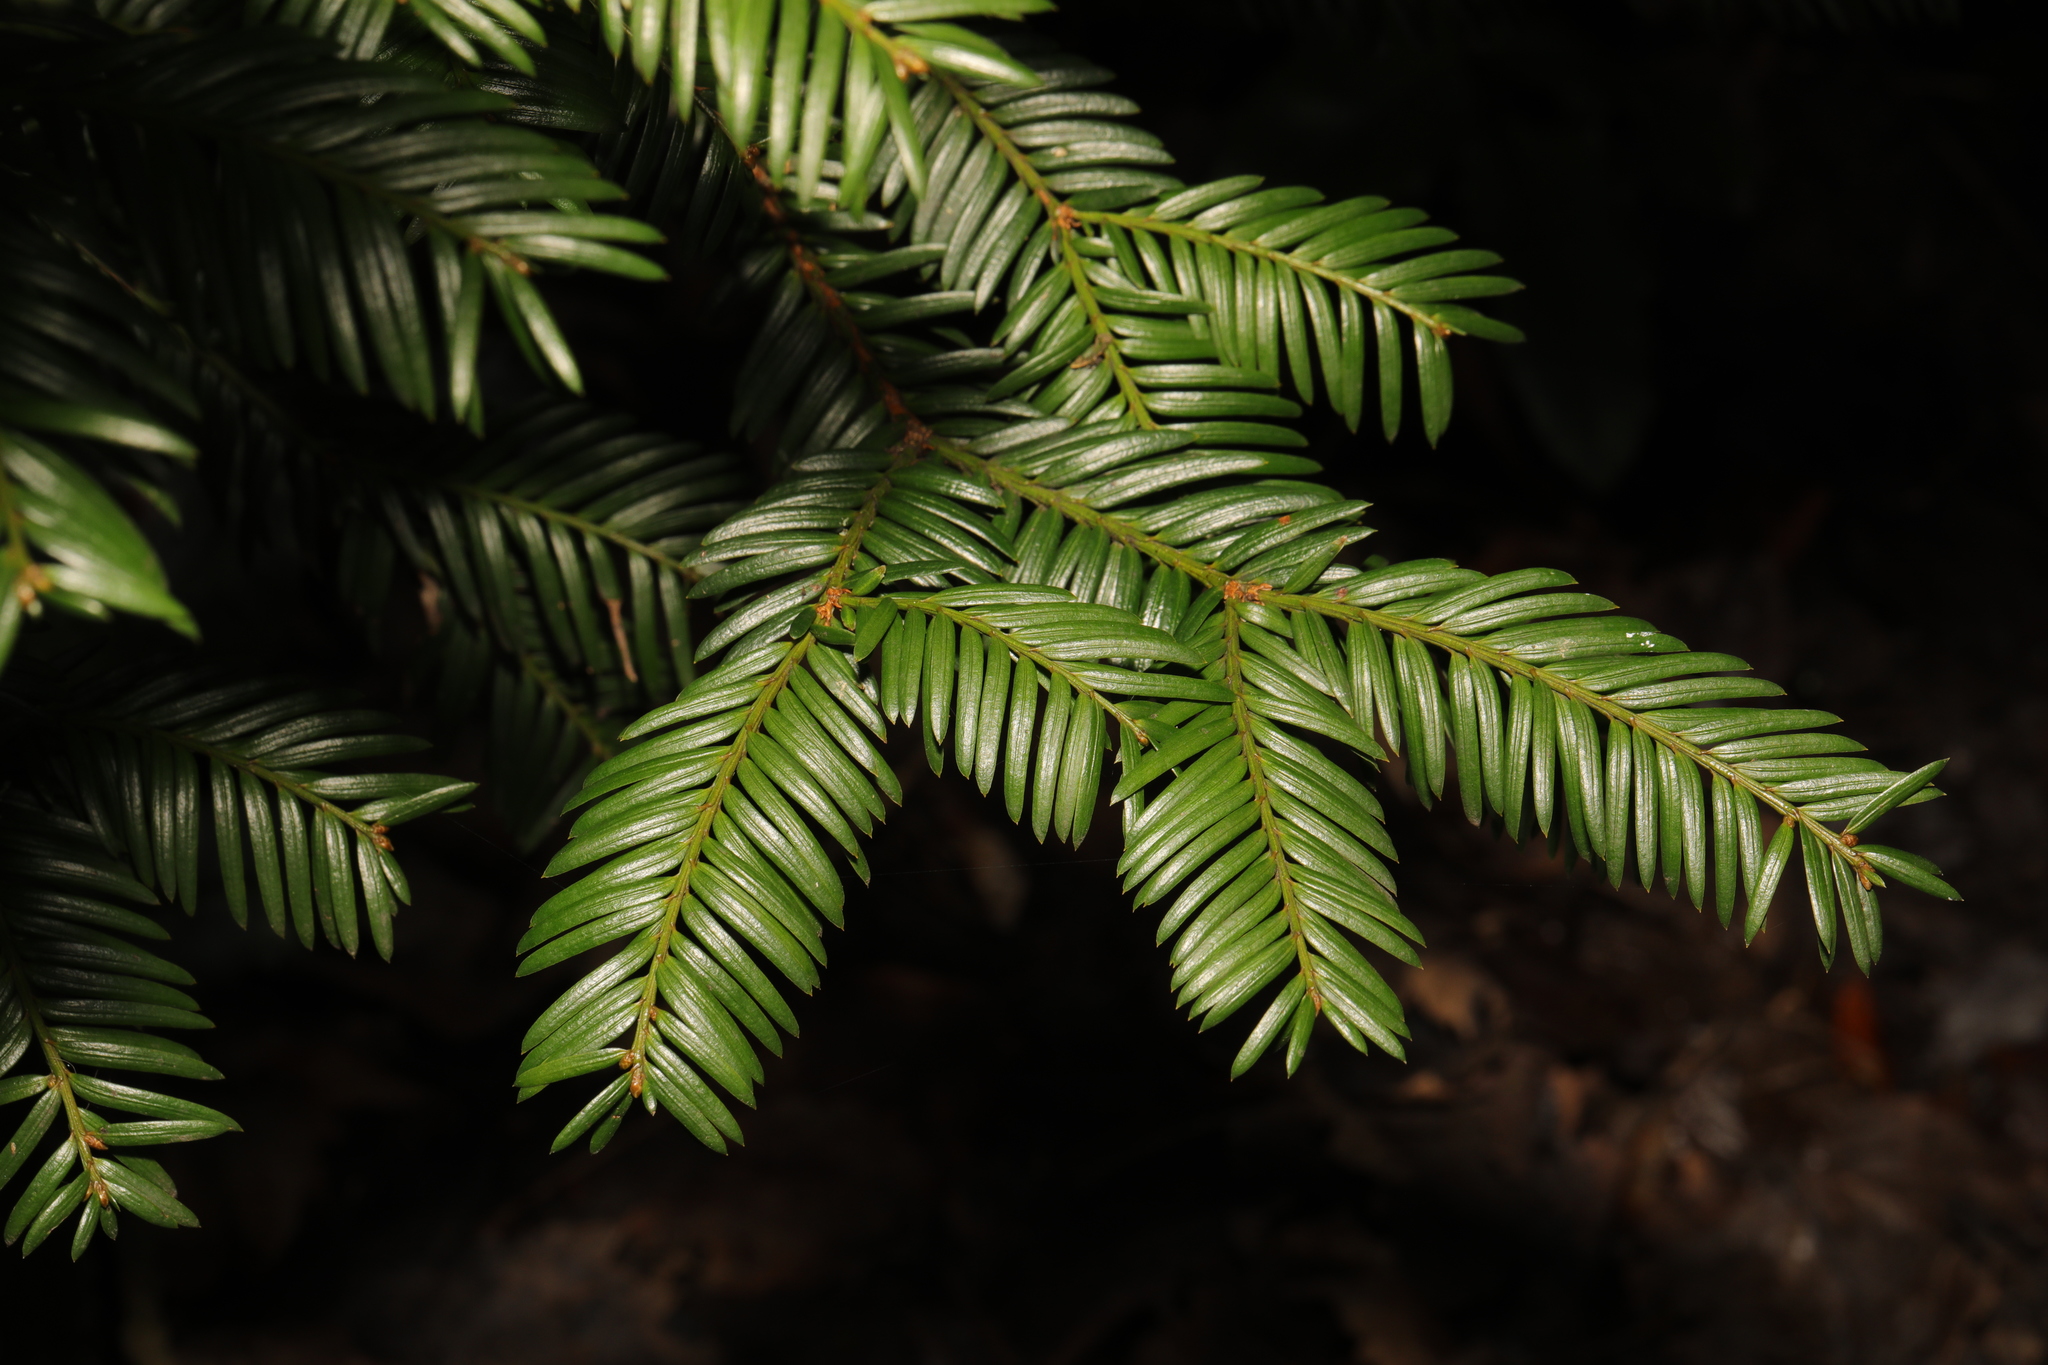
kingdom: Plantae
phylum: Tracheophyta
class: Pinopsida
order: Pinales
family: Taxaceae
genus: Taxus
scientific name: Taxus baccata
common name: Yew
